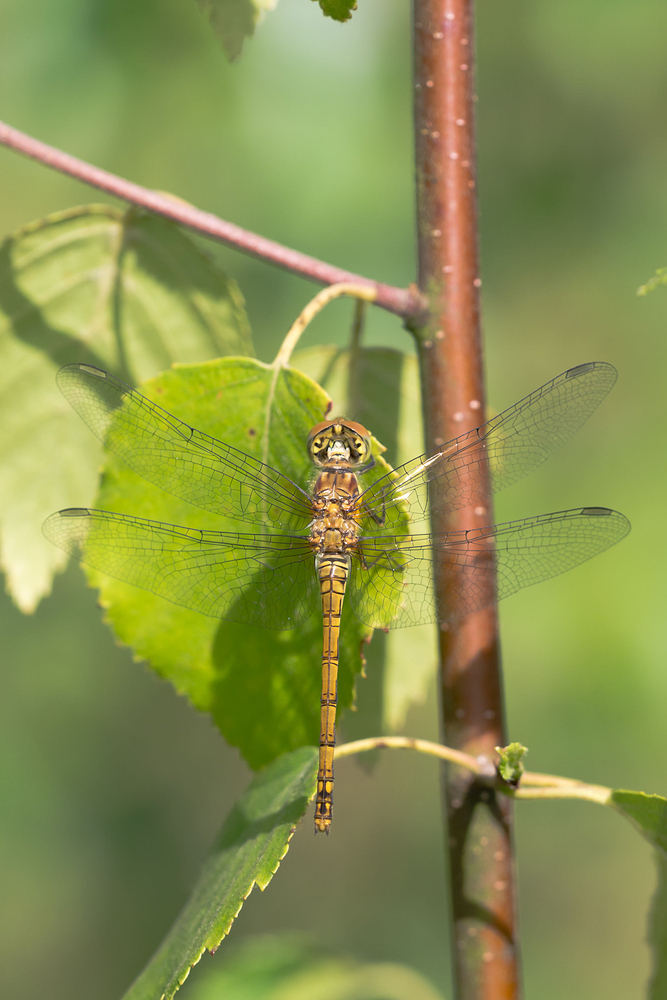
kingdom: Animalia
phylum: Arthropoda
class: Insecta
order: Odonata
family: Libellulidae
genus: Sympetrum
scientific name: Sympetrum striolatum
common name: Common darter
